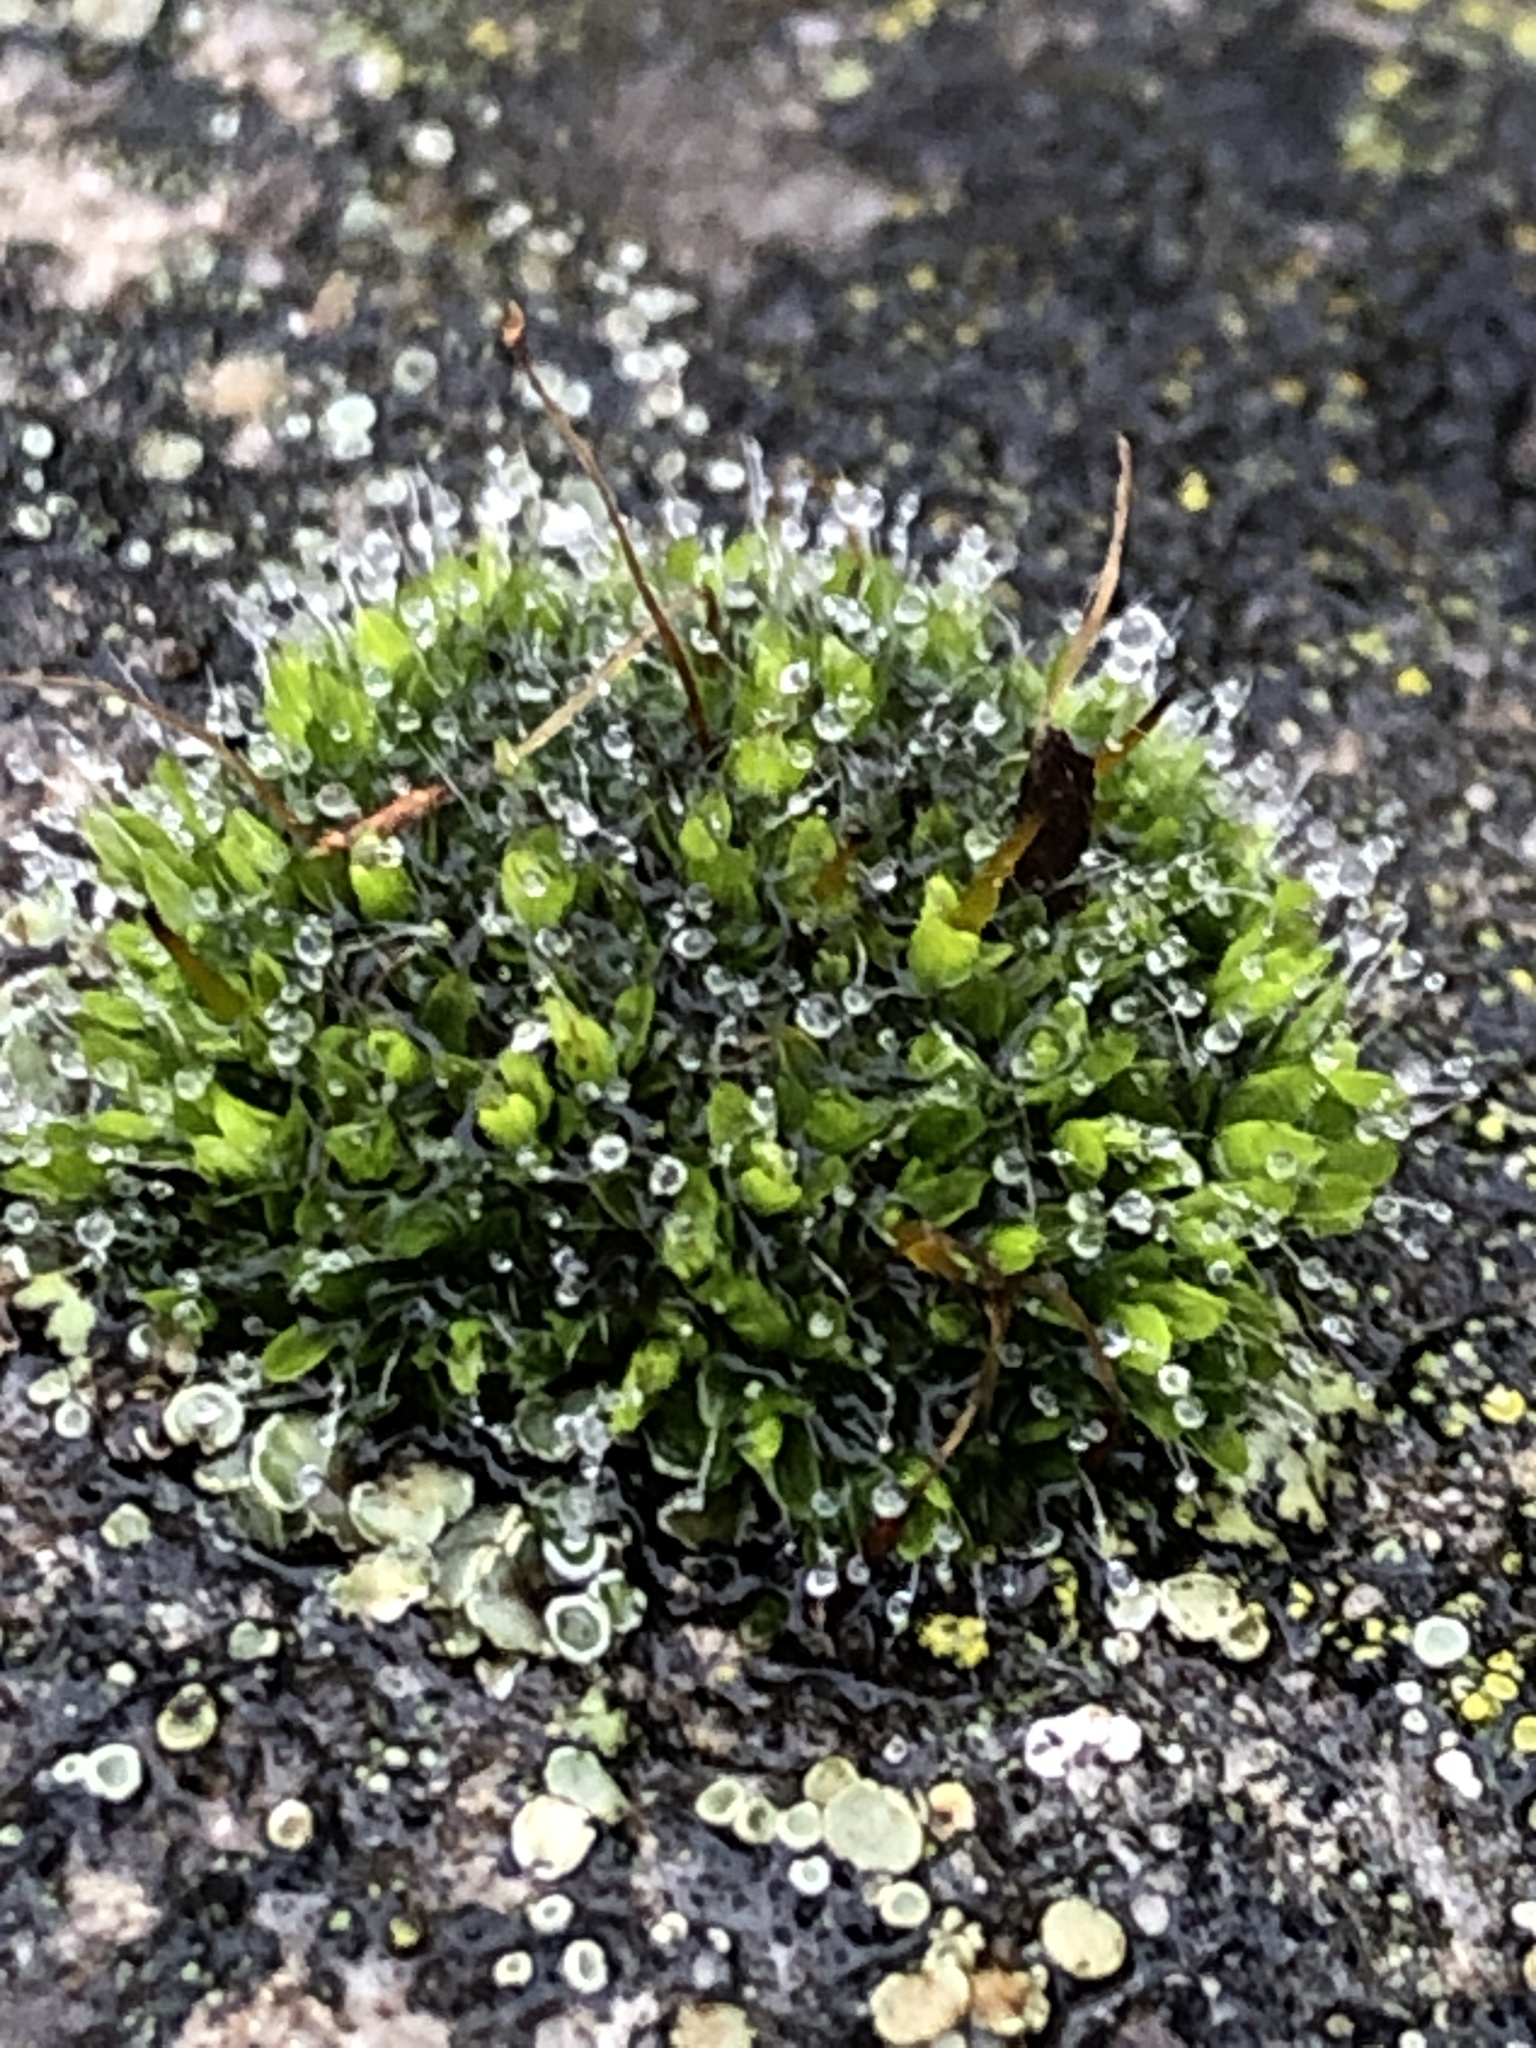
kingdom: Plantae
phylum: Bryophyta
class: Bryopsida
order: Grimmiales
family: Grimmiaceae
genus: Grimmia
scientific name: Grimmia pulvinata
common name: Grey-cushioned grimmia
